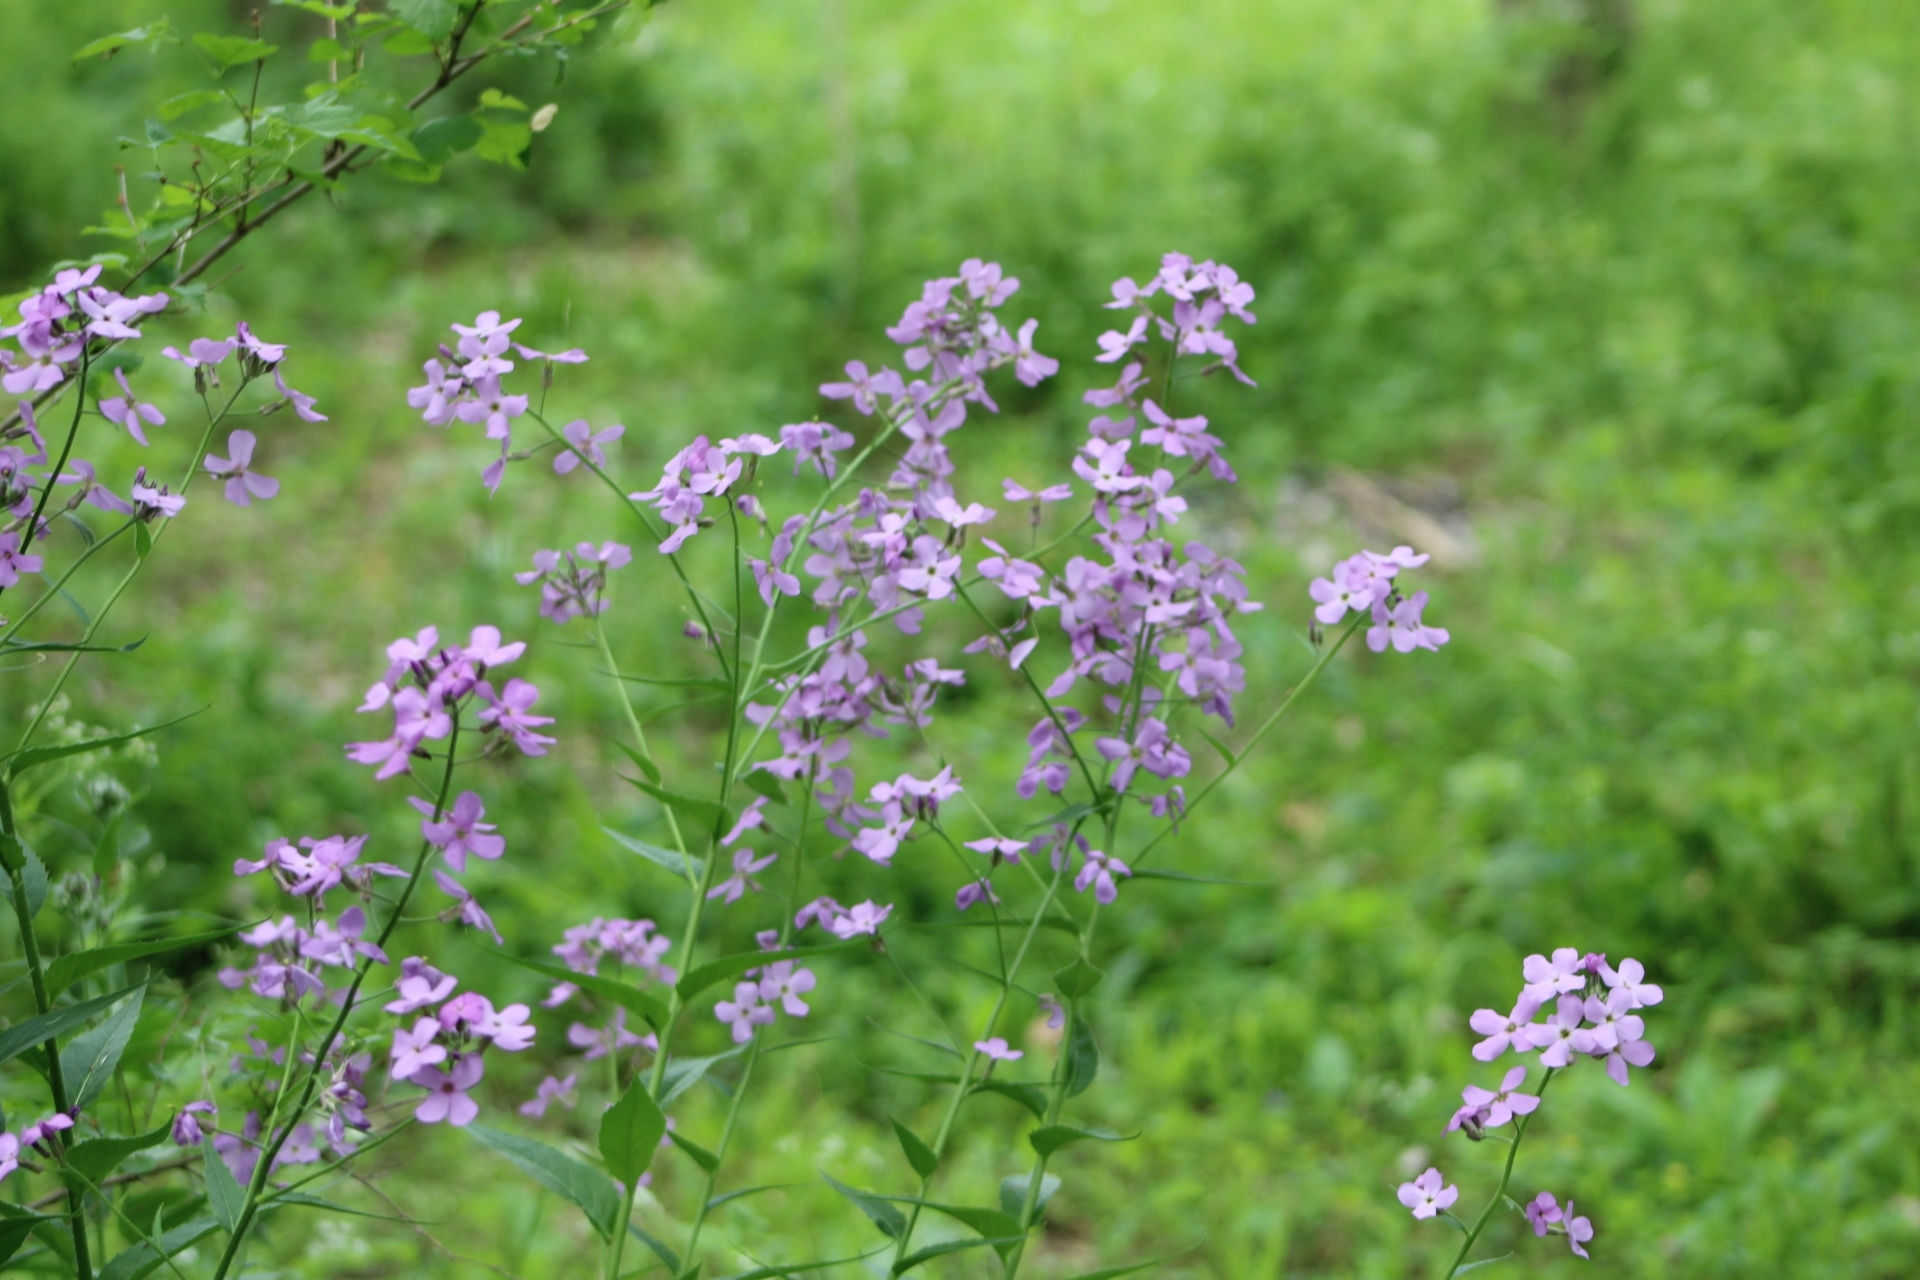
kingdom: Plantae
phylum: Tracheophyta
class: Magnoliopsida
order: Brassicales
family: Brassicaceae
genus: Hesperis
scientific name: Hesperis matronalis
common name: Dame's-violet
